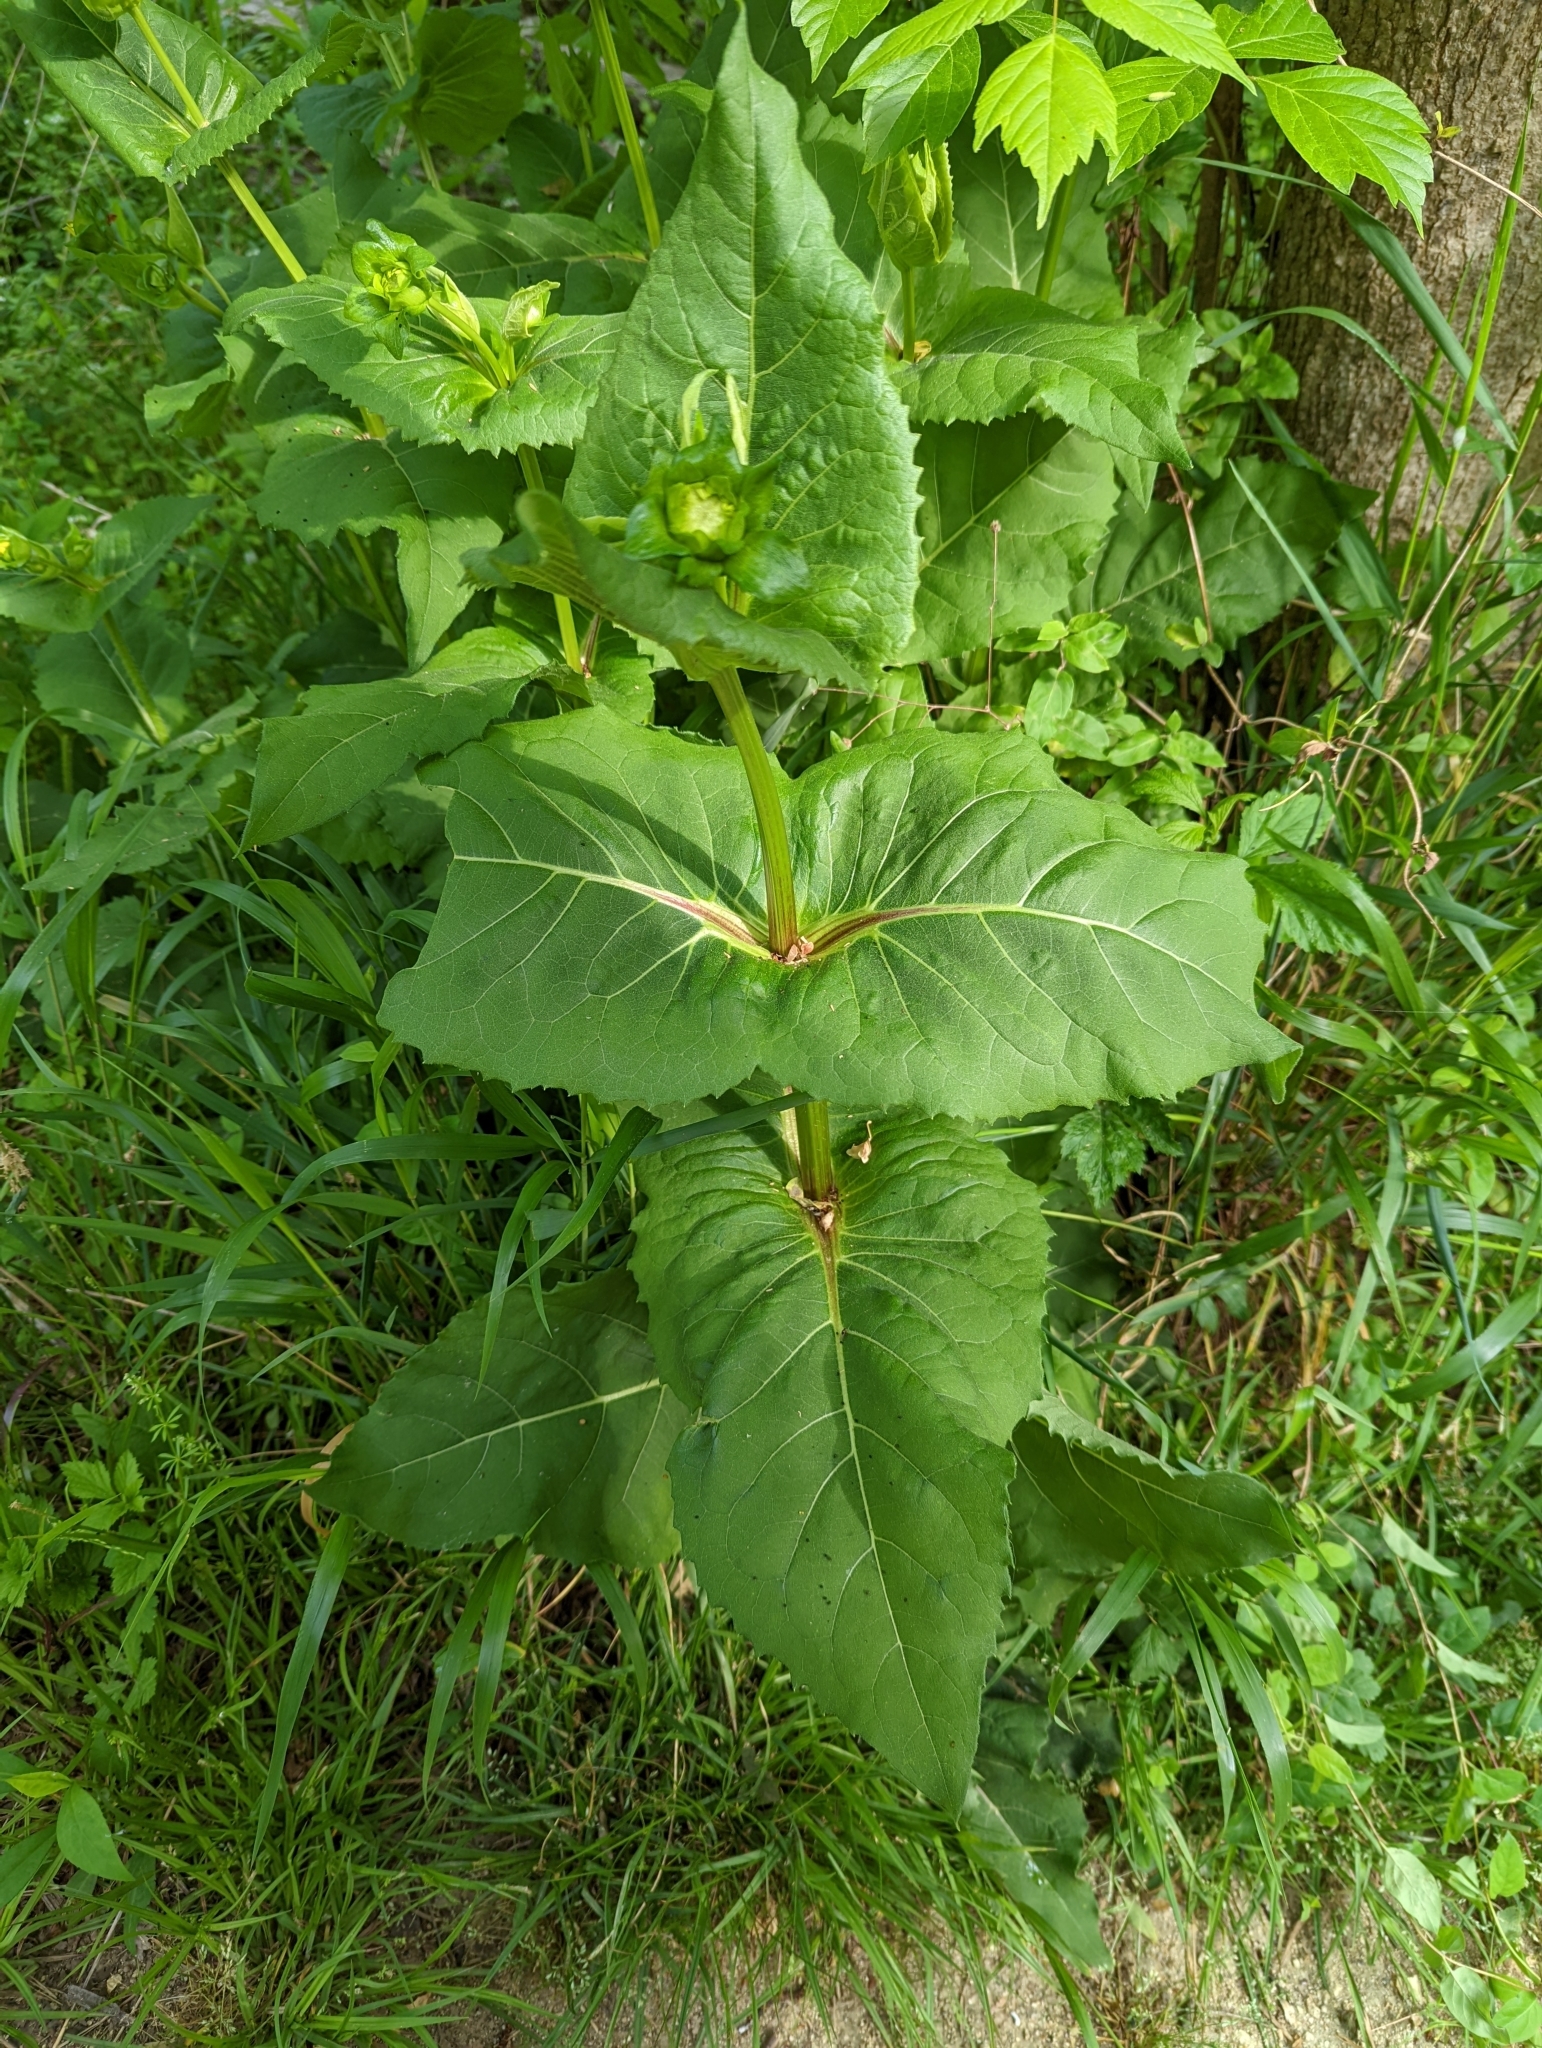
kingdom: Plantae
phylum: Tracheophyta
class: Magnoliopsida
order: Asterales
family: Asteraceae
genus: Silphium
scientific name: Silphium perfoliatum
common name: Cup-plant
